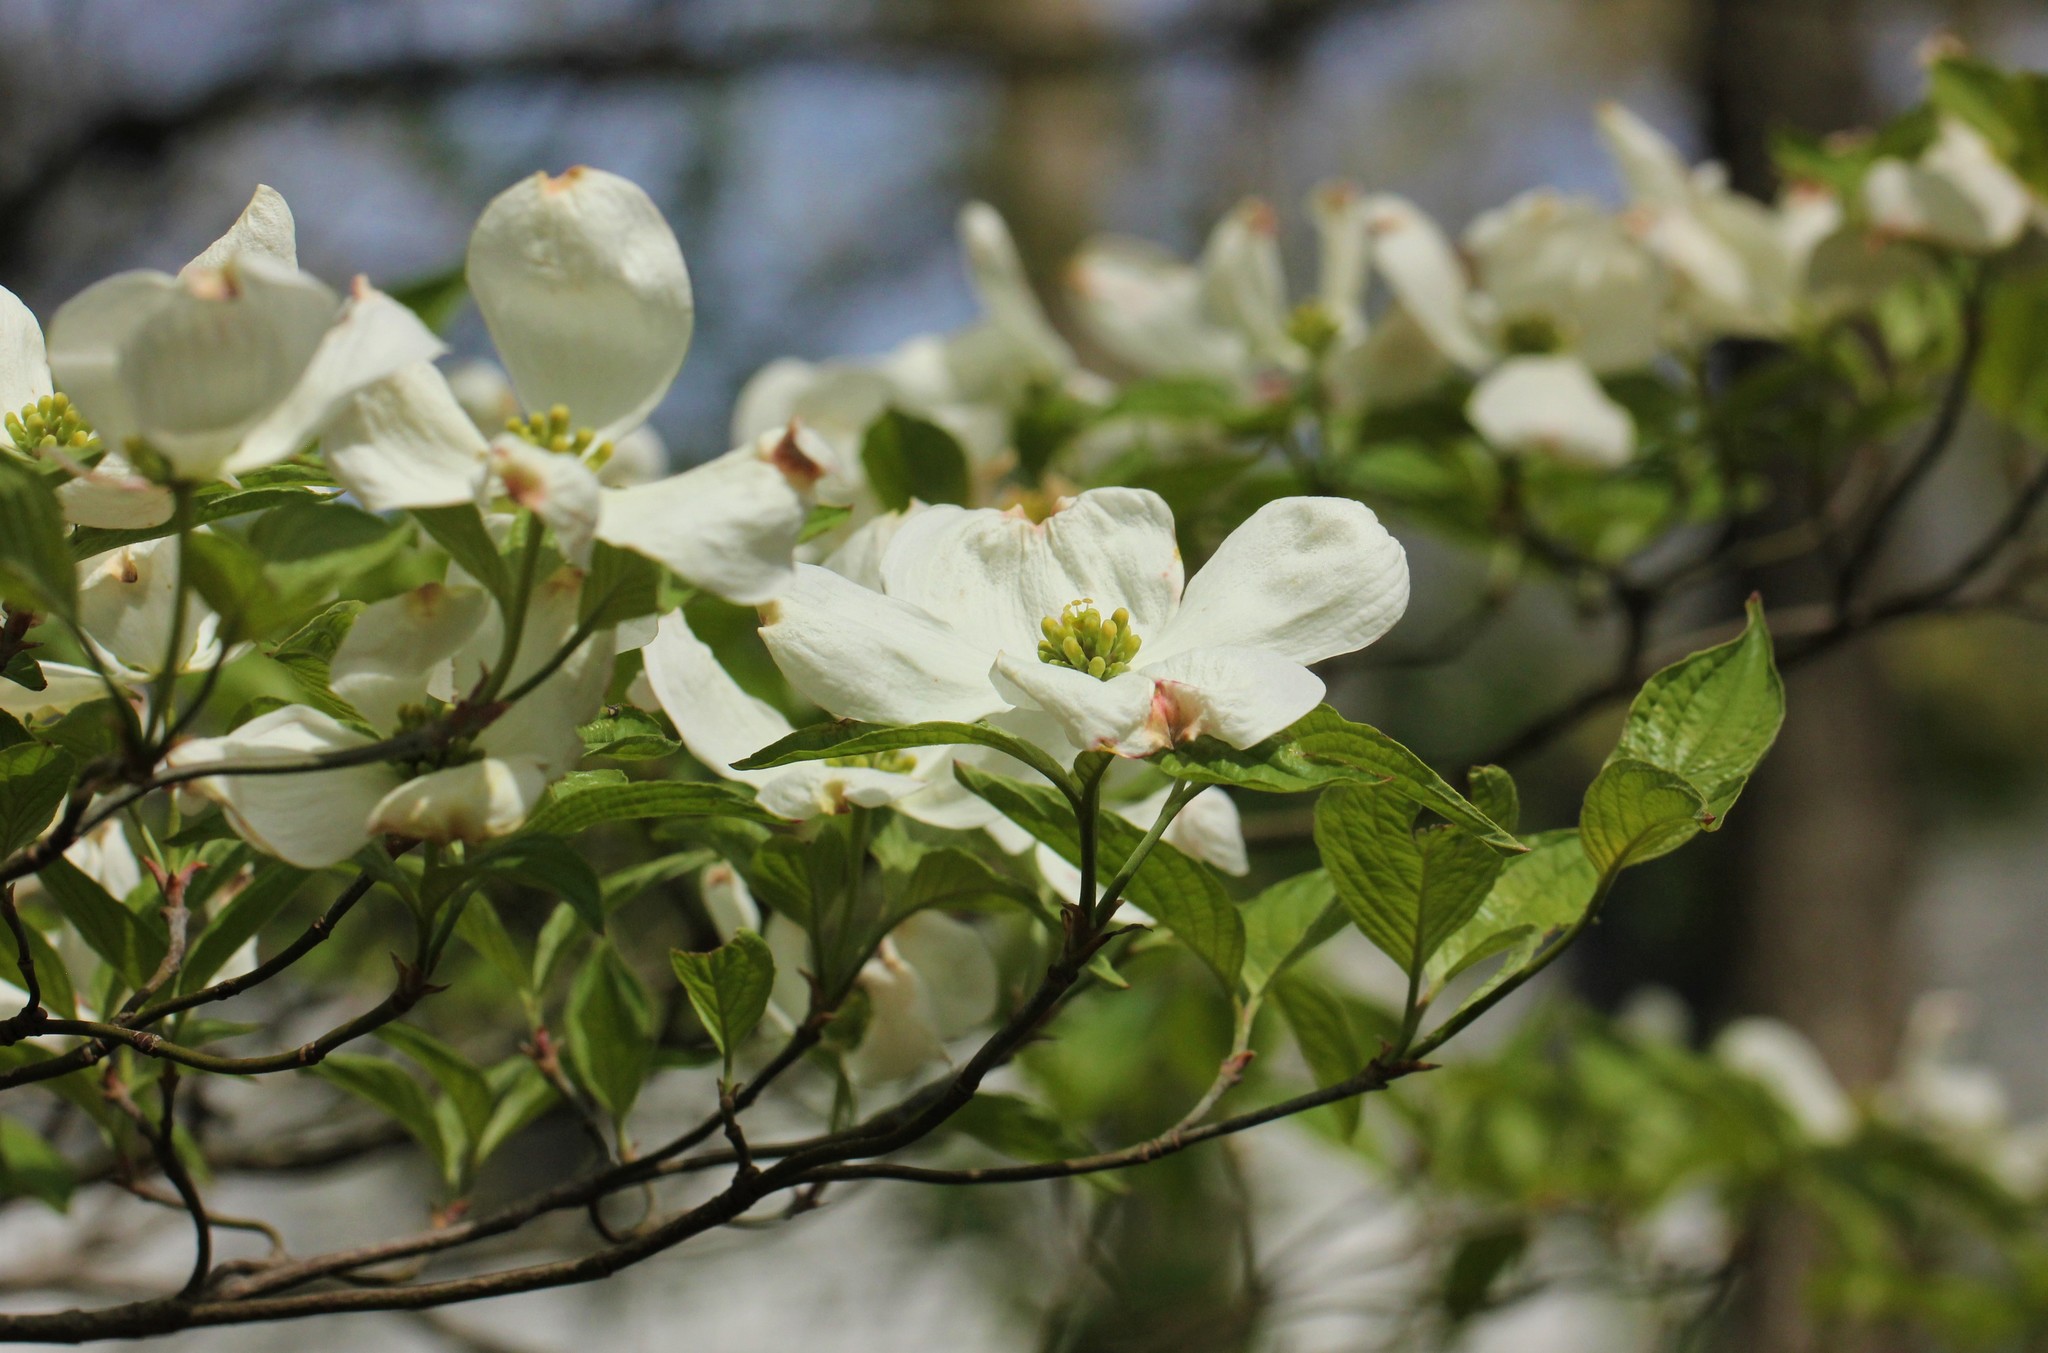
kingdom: Plantae
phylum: Tracheophyta
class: Magnoliopsida
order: Cornales
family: Cornaceae
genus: Cornus
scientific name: Cornus florida
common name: Flowering dogwood
